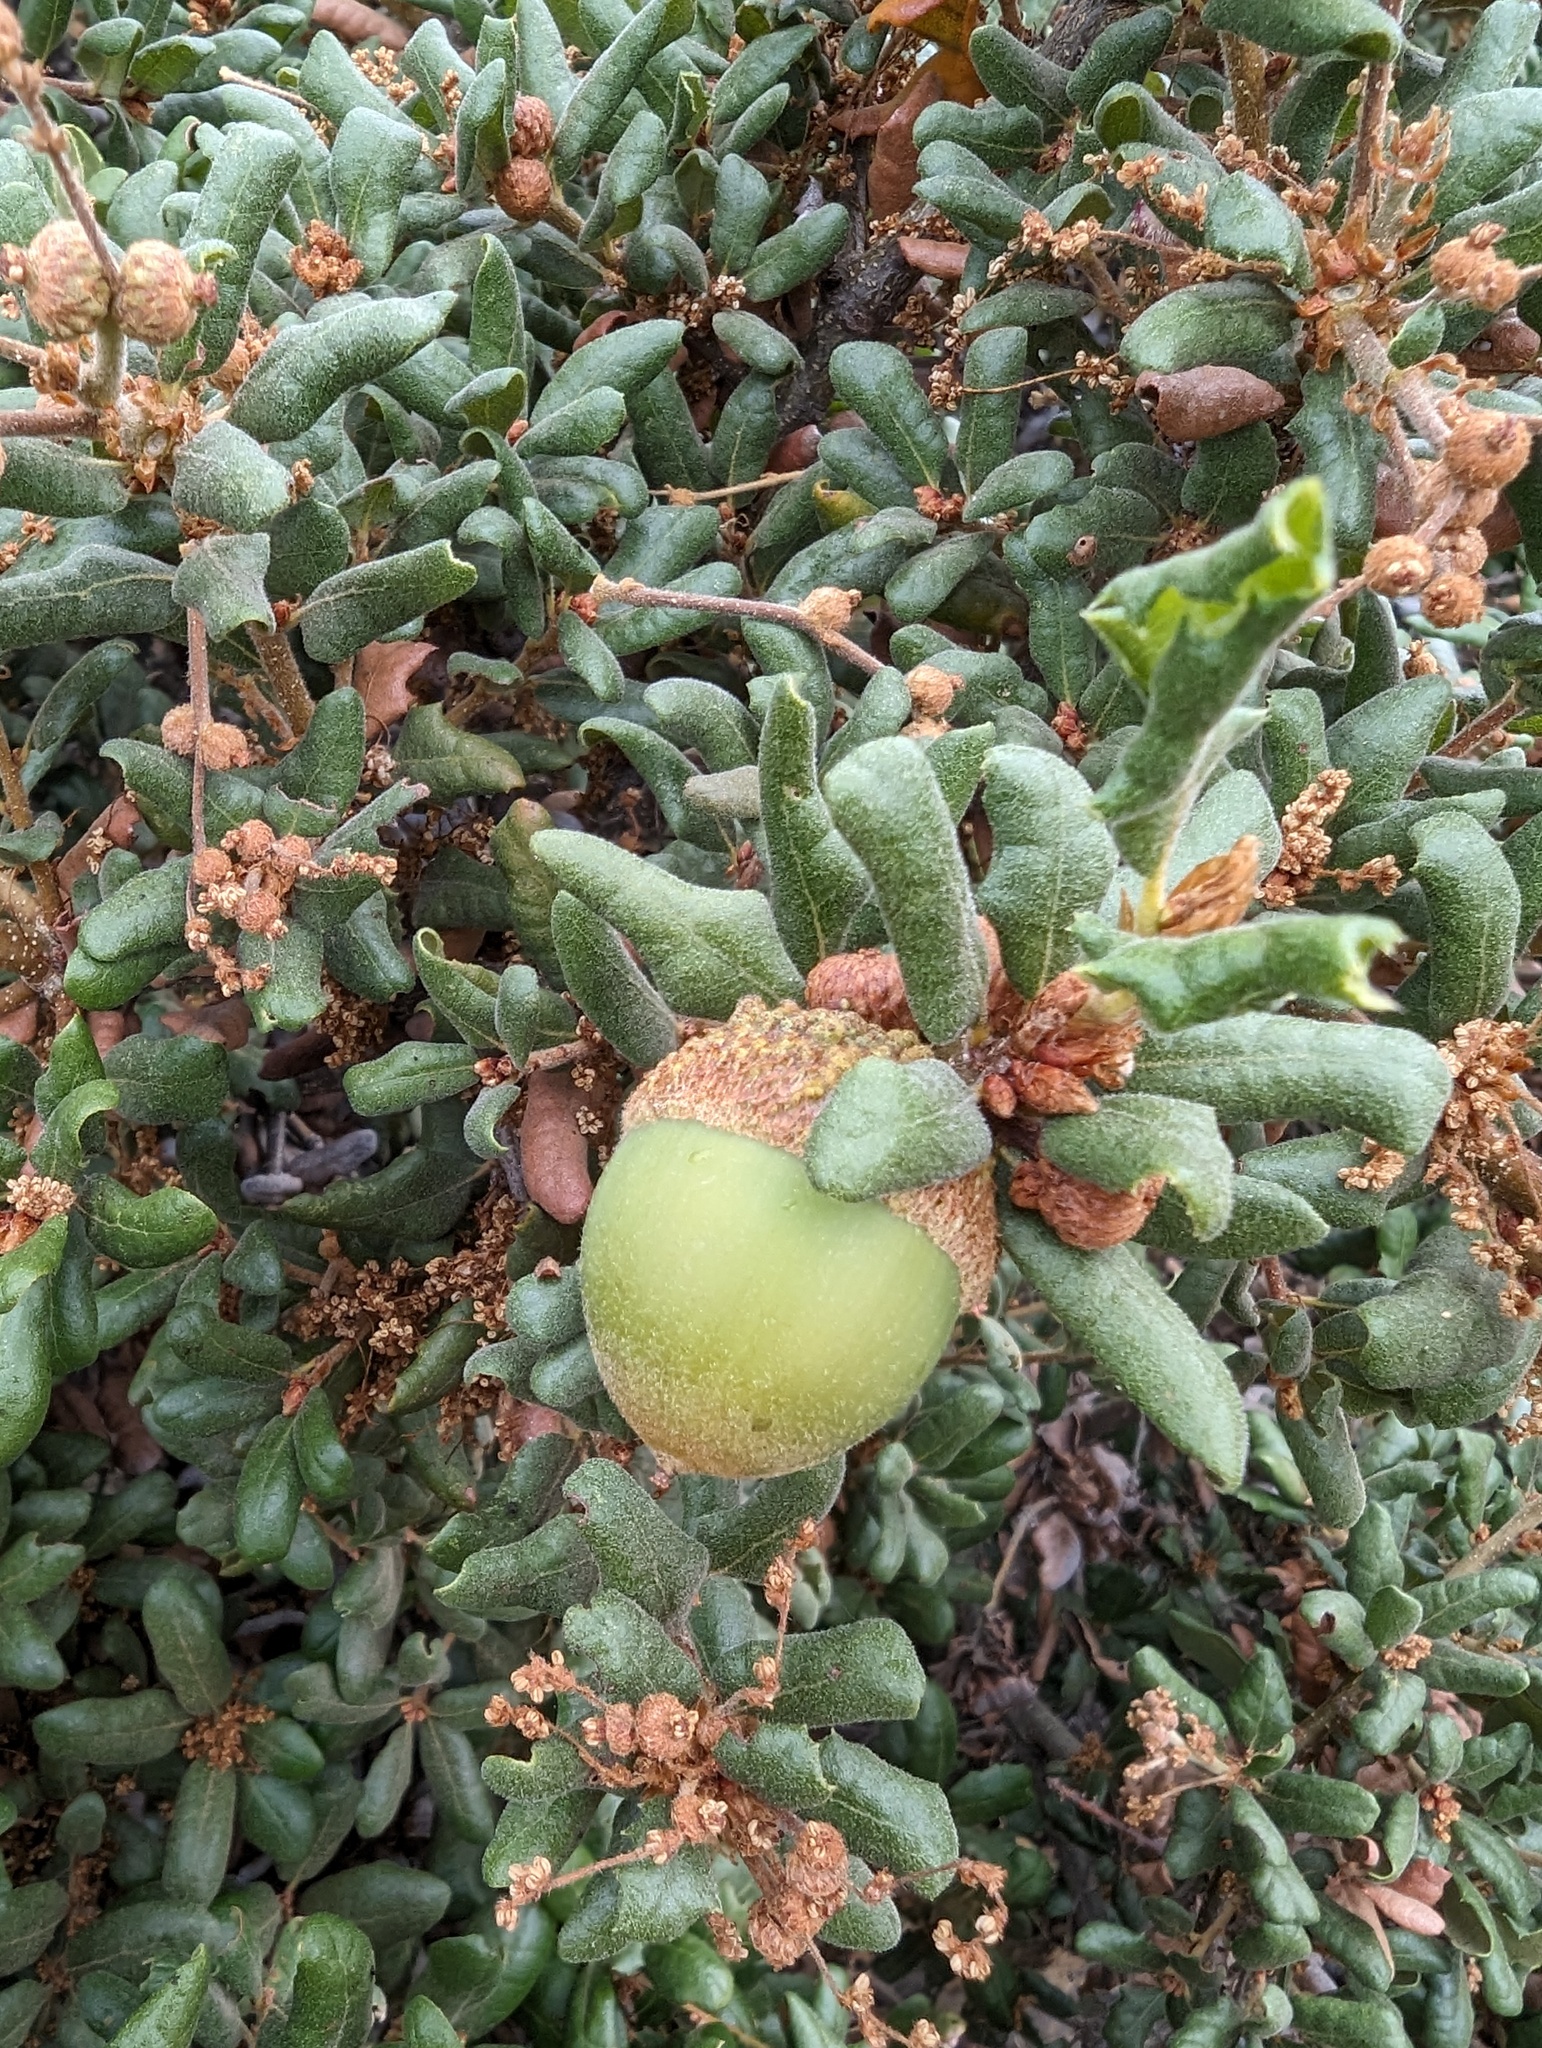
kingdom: Plantae
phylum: Tracheophyta
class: Magnoliopsida
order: Fagales
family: Fagaceae
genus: Quercus
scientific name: Quercus durata
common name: Leather oak
